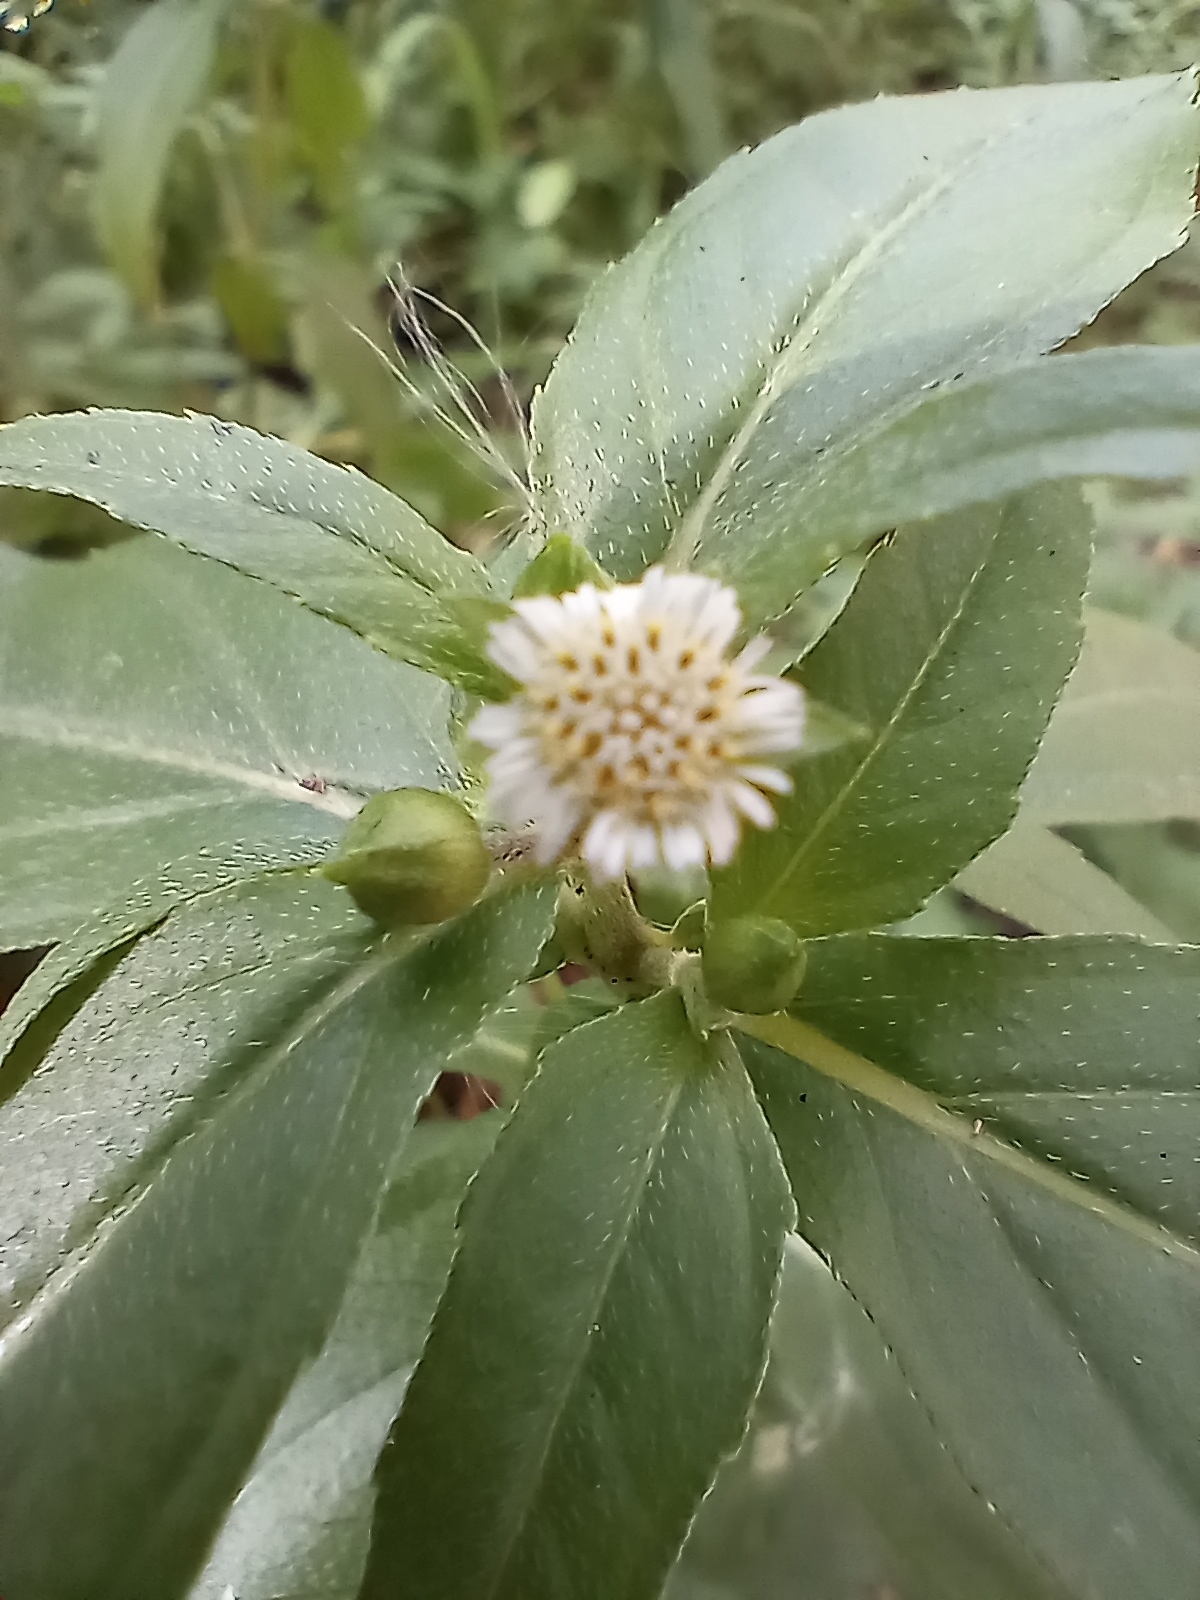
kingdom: Plantae
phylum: Tracheophyta
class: Magnoliopsida
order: Asterales
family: Asteraceae
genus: Eclipta
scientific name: Eclipta prostrata
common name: False daisy
